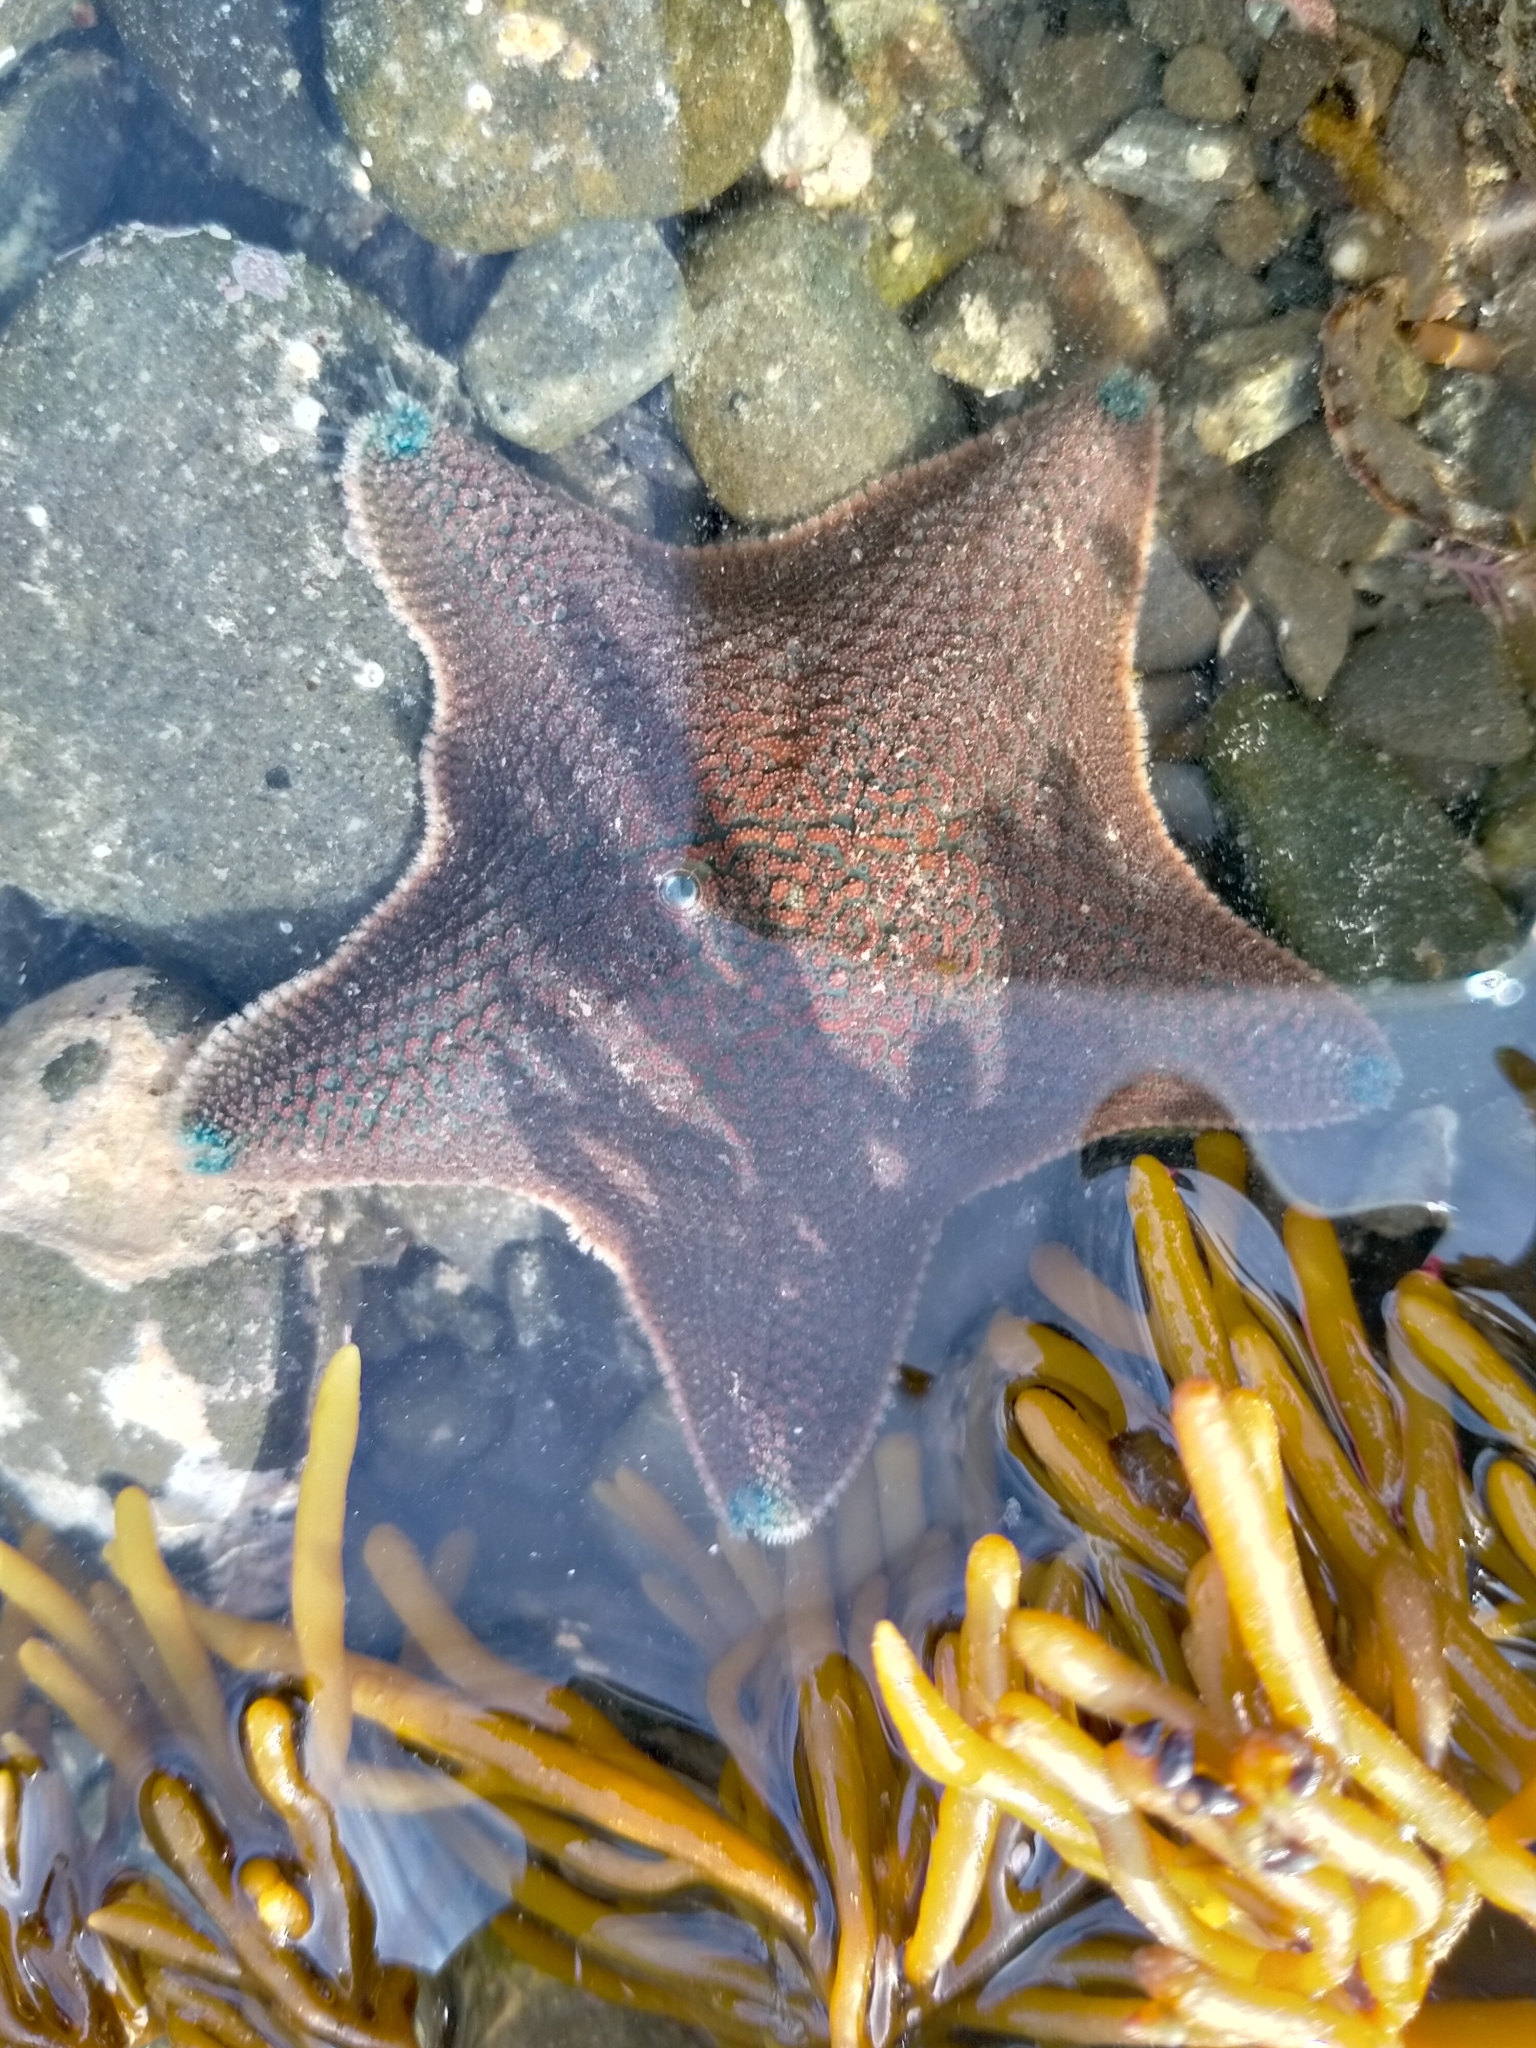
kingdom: Animalia
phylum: Echinodermata
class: Asteroidea
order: Valvatida
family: Asterinidae
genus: Patiriella
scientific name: Patiriella regularis
